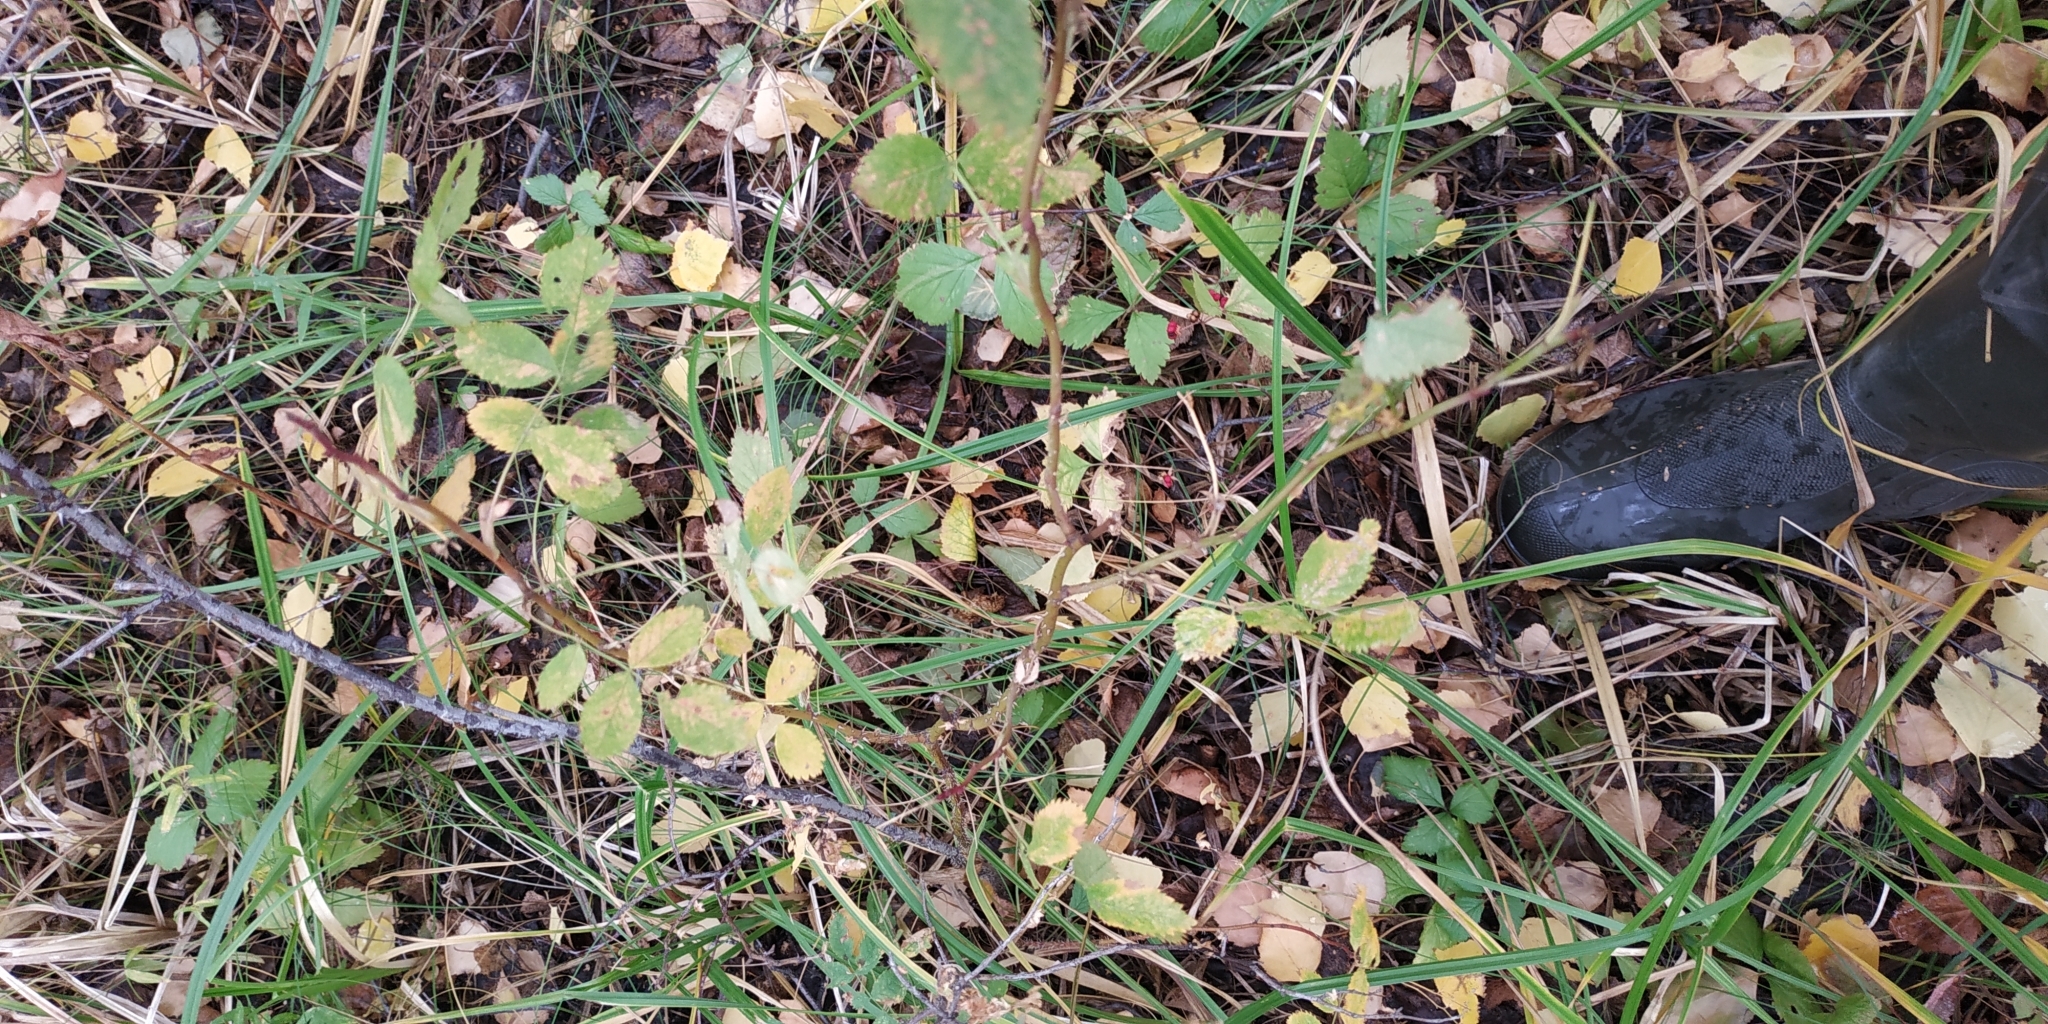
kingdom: Plantae
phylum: Tracheophyta
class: Magnoliopsida
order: Rosales
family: Rosaceae
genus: Rosa
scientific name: Rosa
